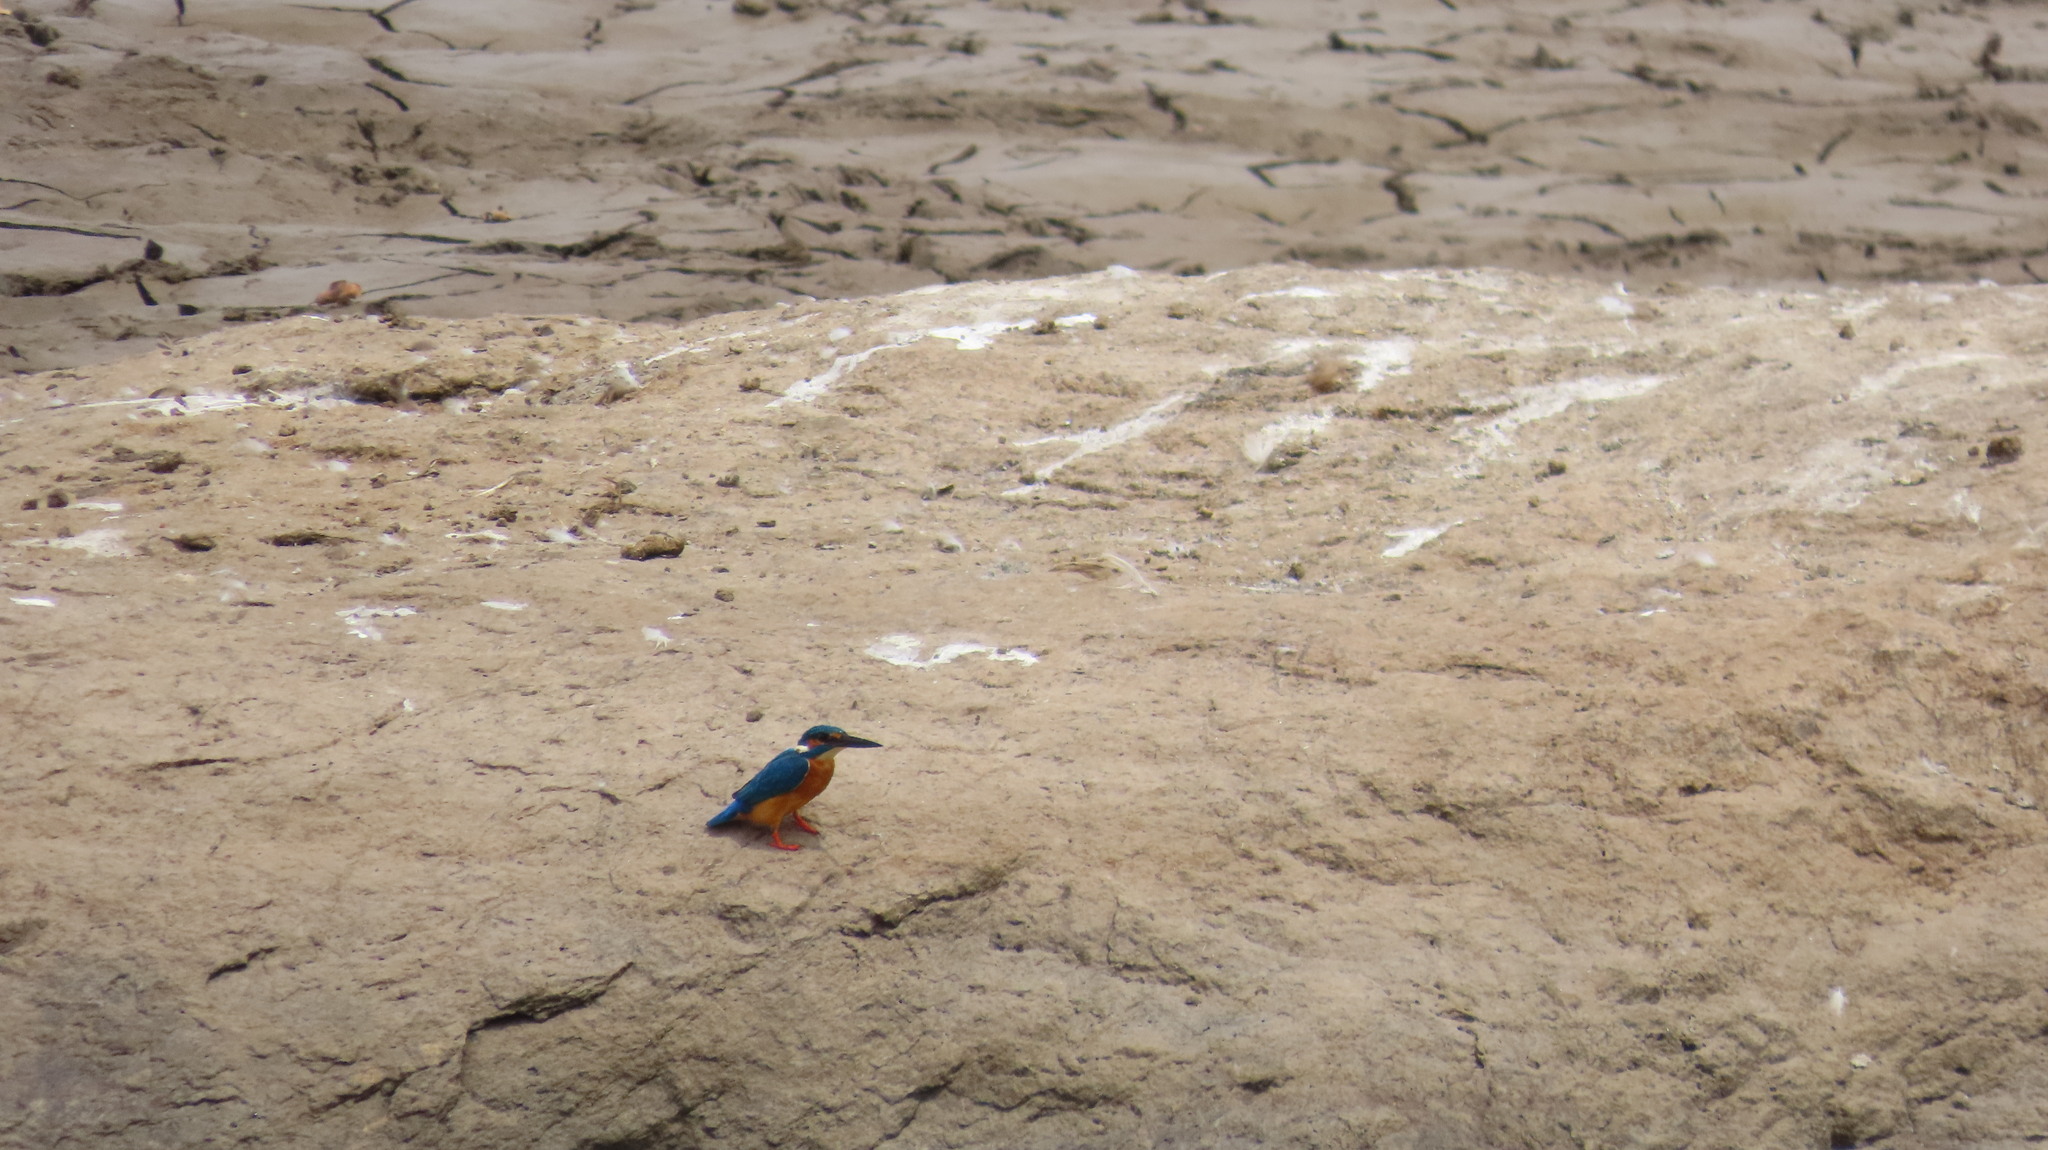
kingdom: Animalia
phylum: Chordata
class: Aves
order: Coraciiformes
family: Alcedinidae
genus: Alcedo
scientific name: Alcedo atthis
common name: Common kingfisher
